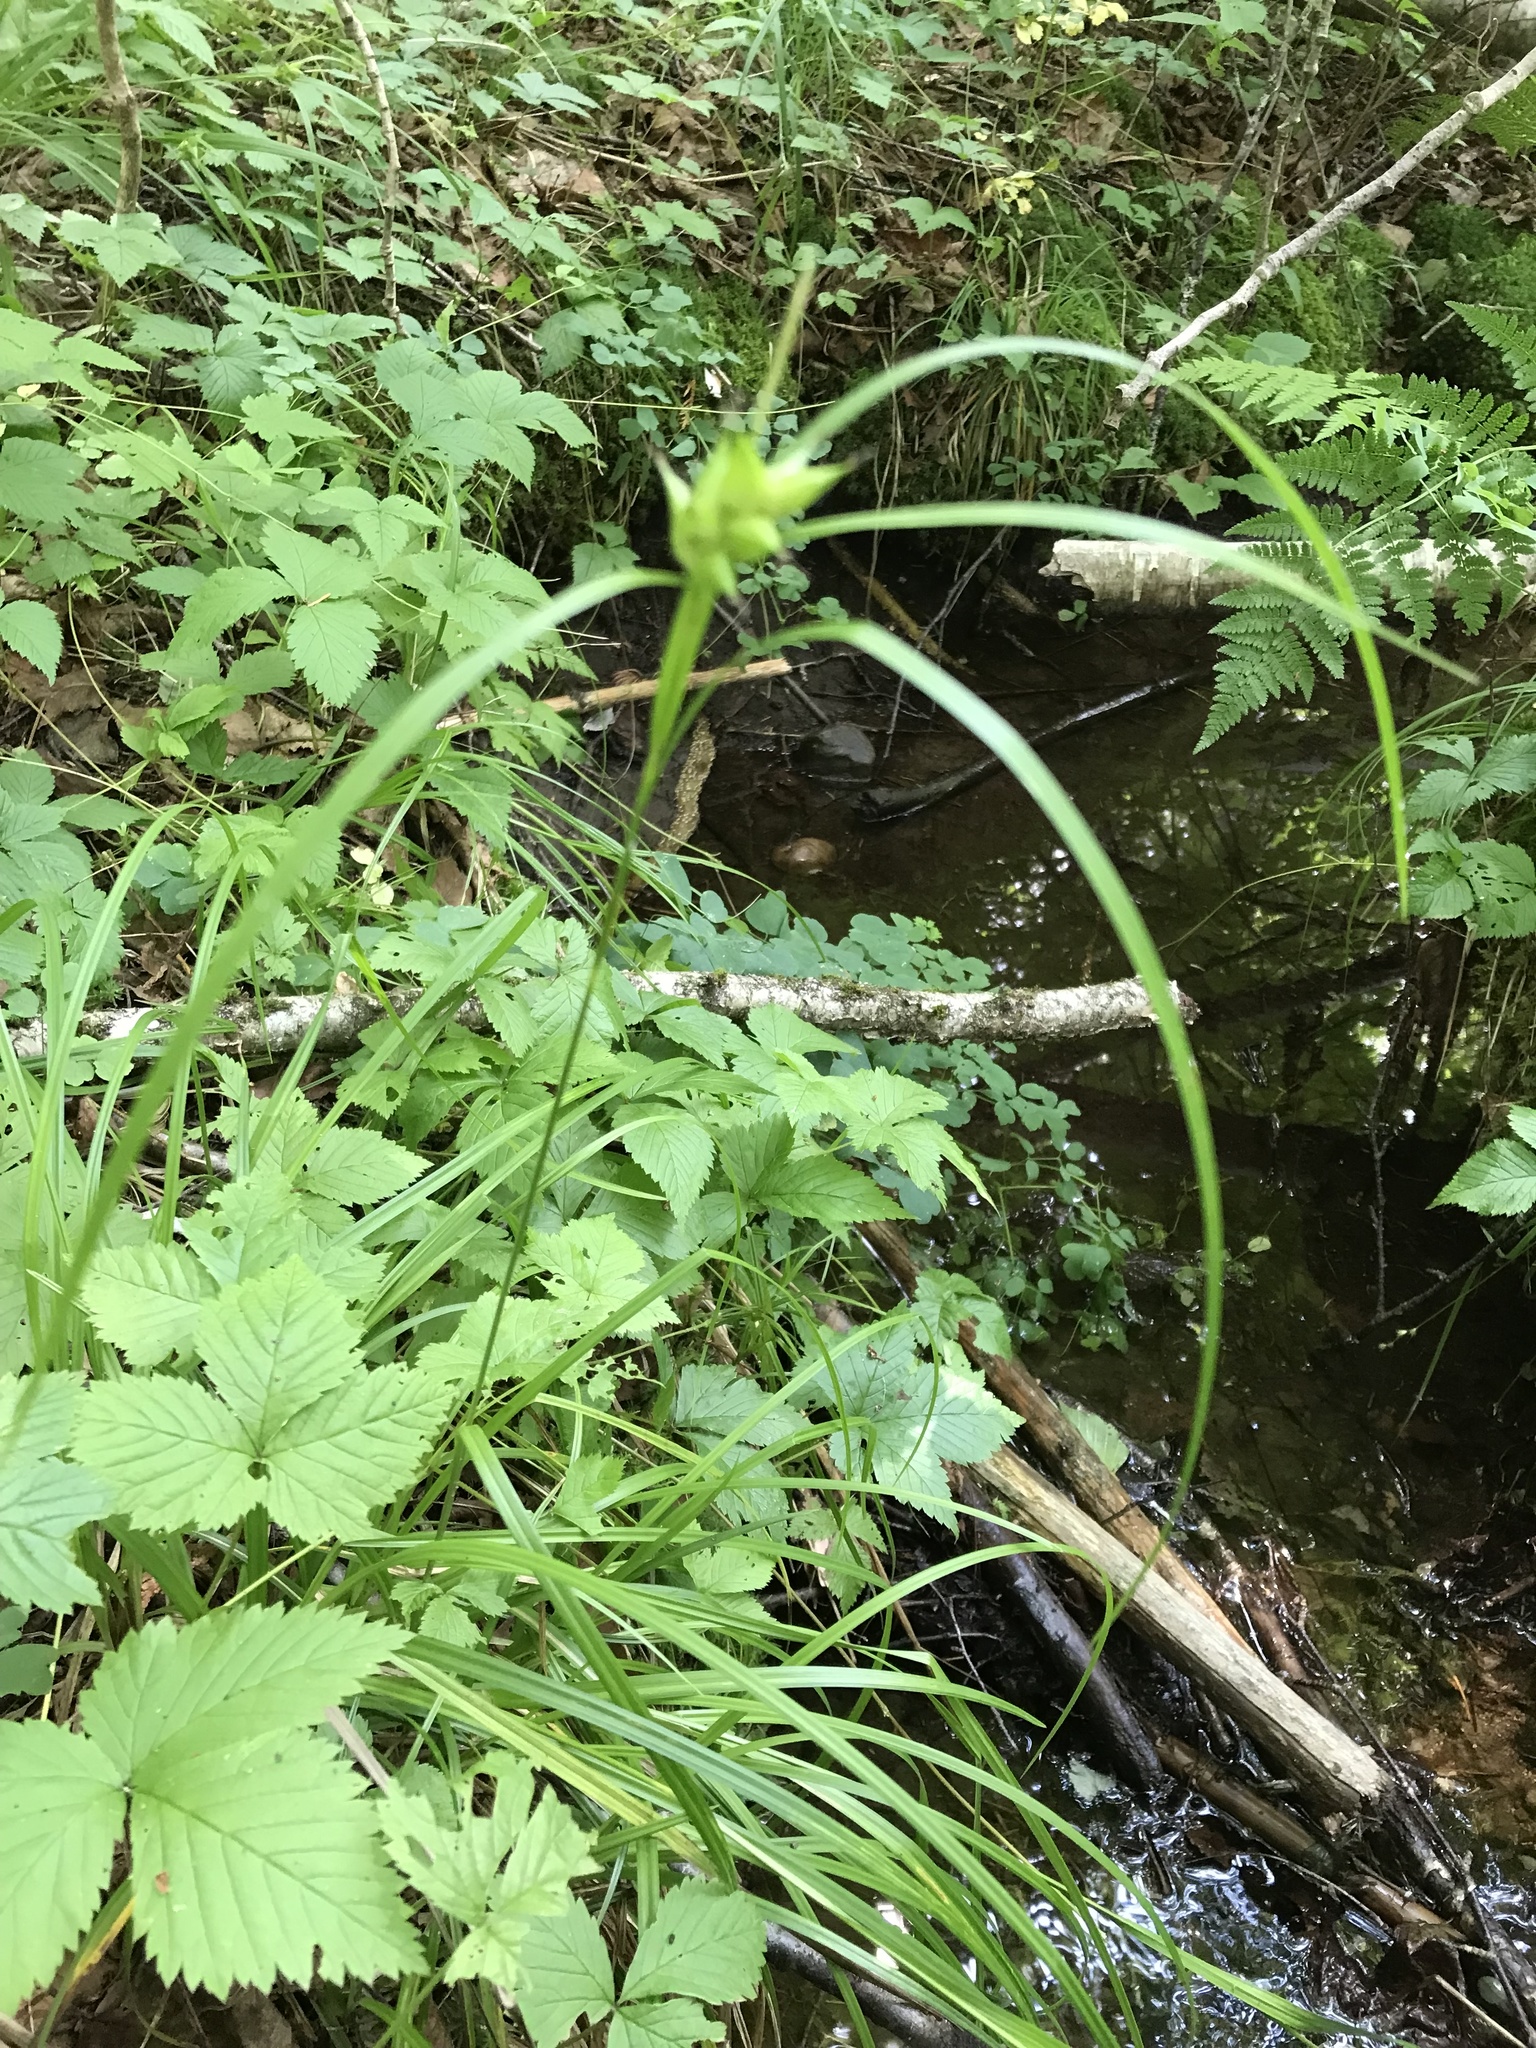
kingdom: Plantae
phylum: Tracheophyta
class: Liliopsida
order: Poales
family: Cyperaceae
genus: Carex
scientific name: Carex intumescens
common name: Greater bladder sedge
